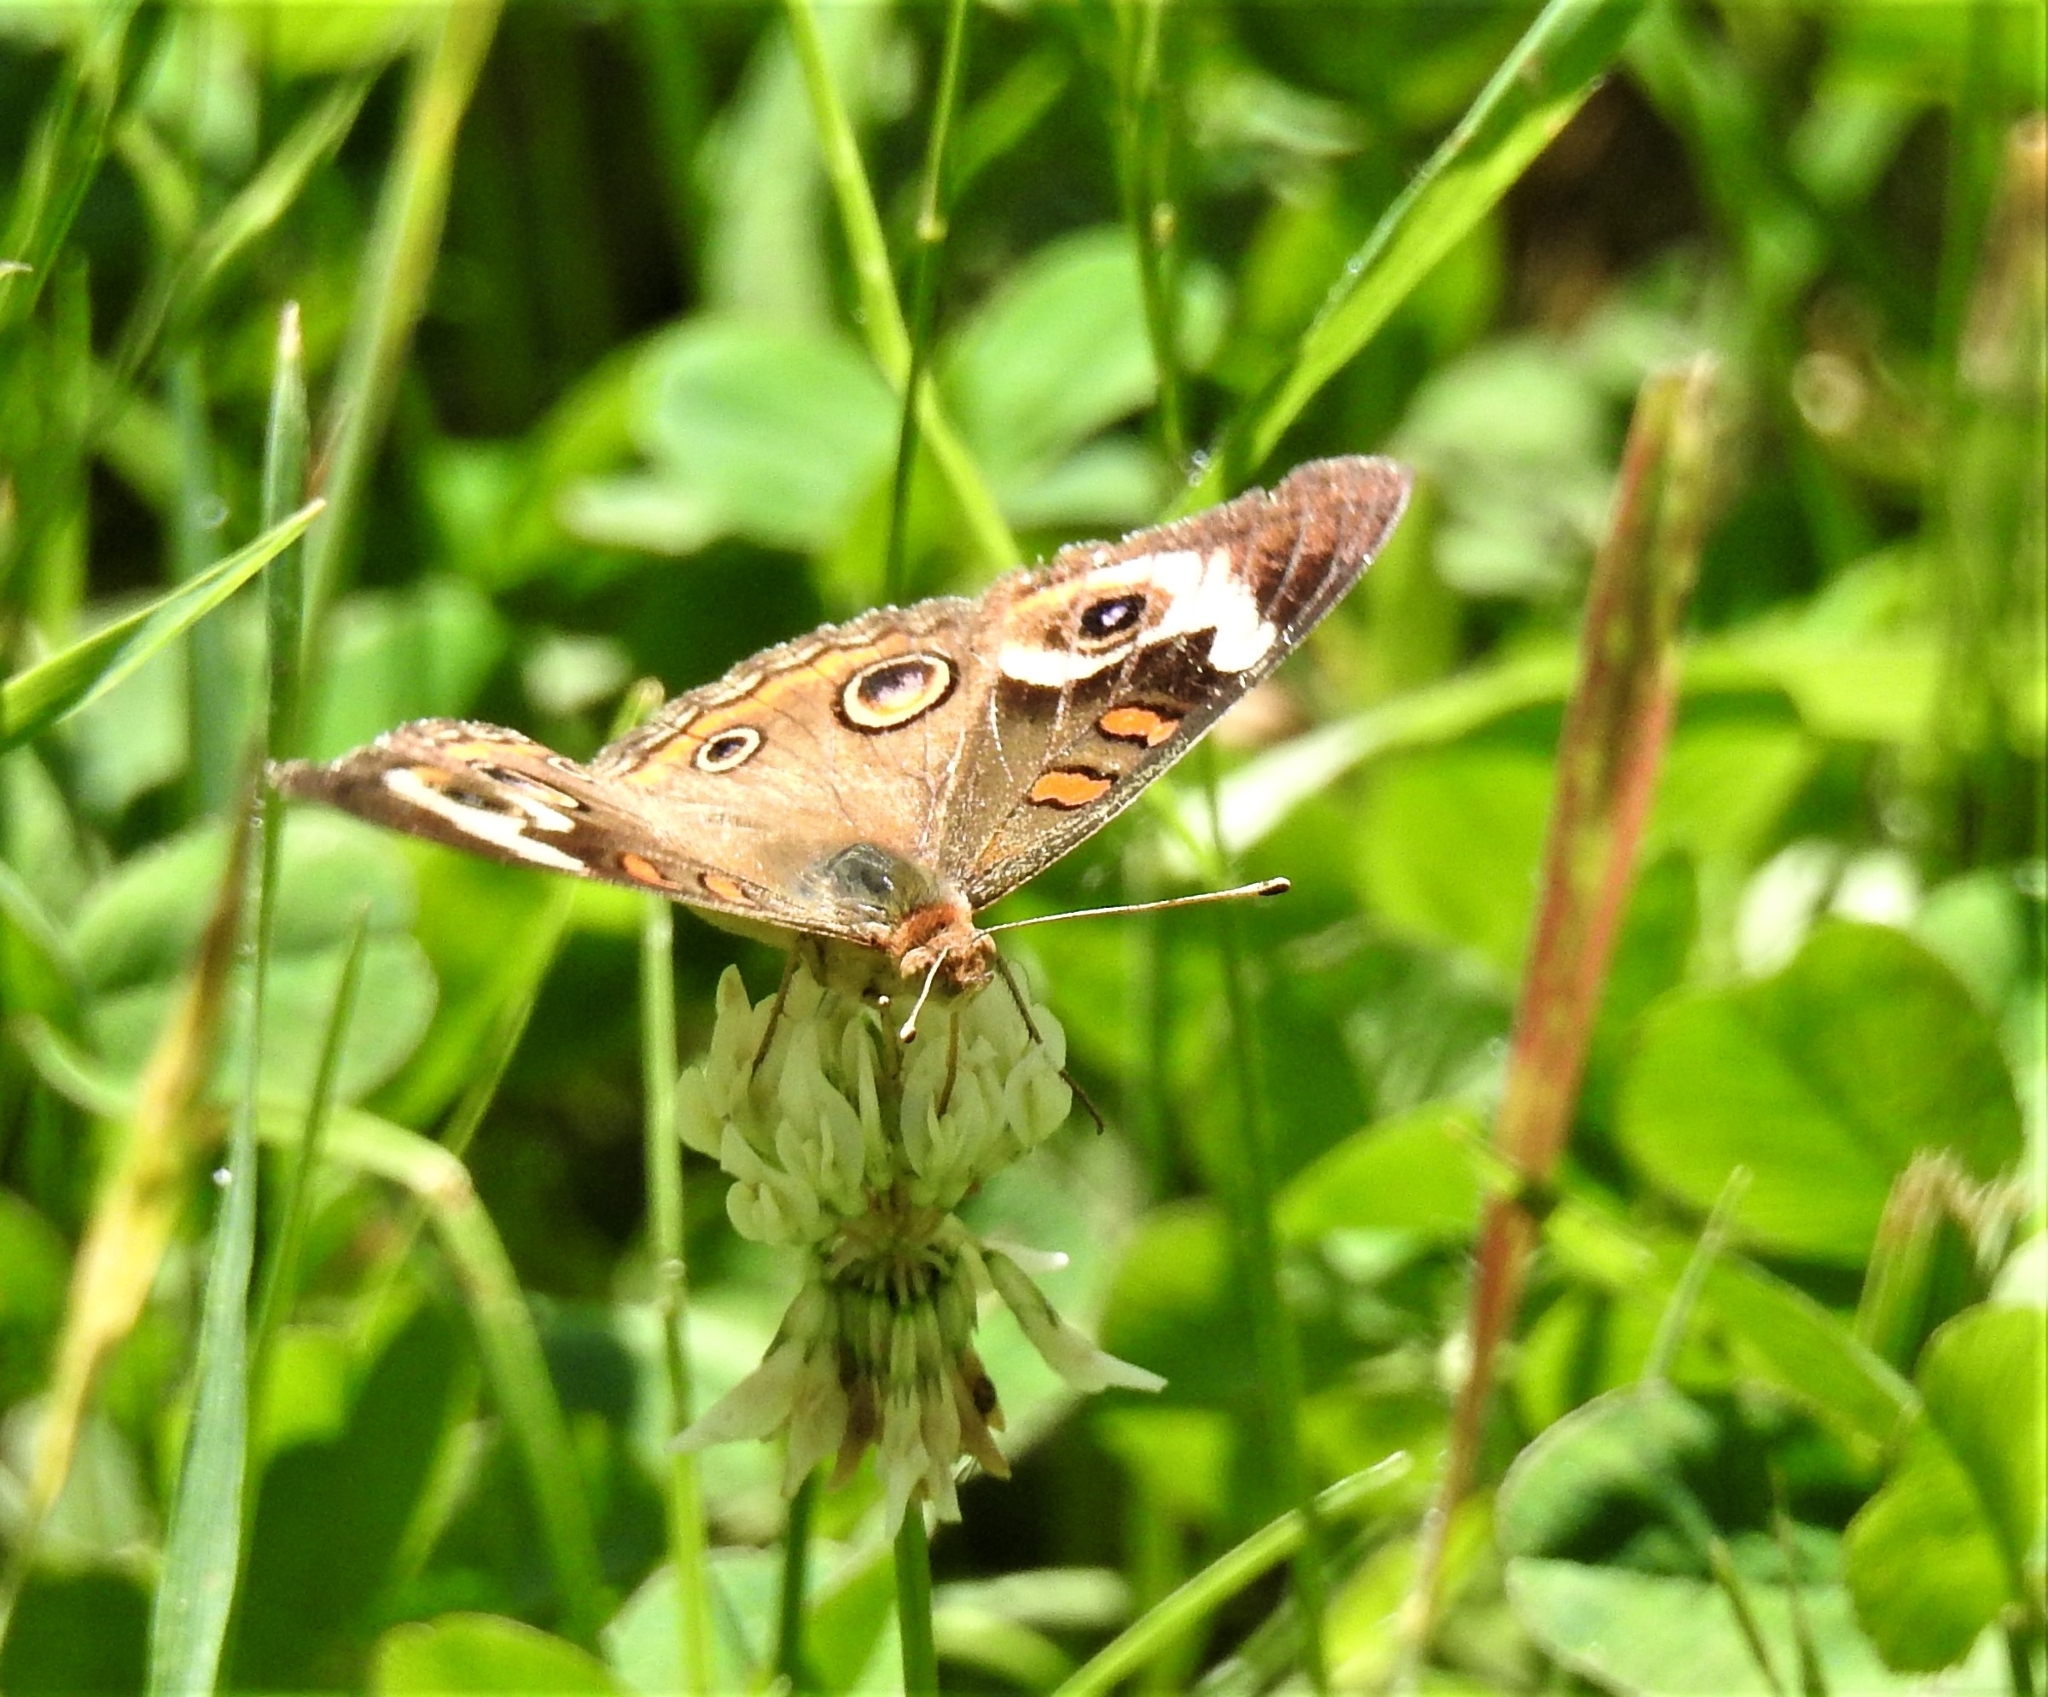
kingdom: Animalia
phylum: Arthropoda
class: Insecta
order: Lepidoptera
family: Nymphalidae
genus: Junonia
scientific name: Junonia coenia
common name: Common buckeye
